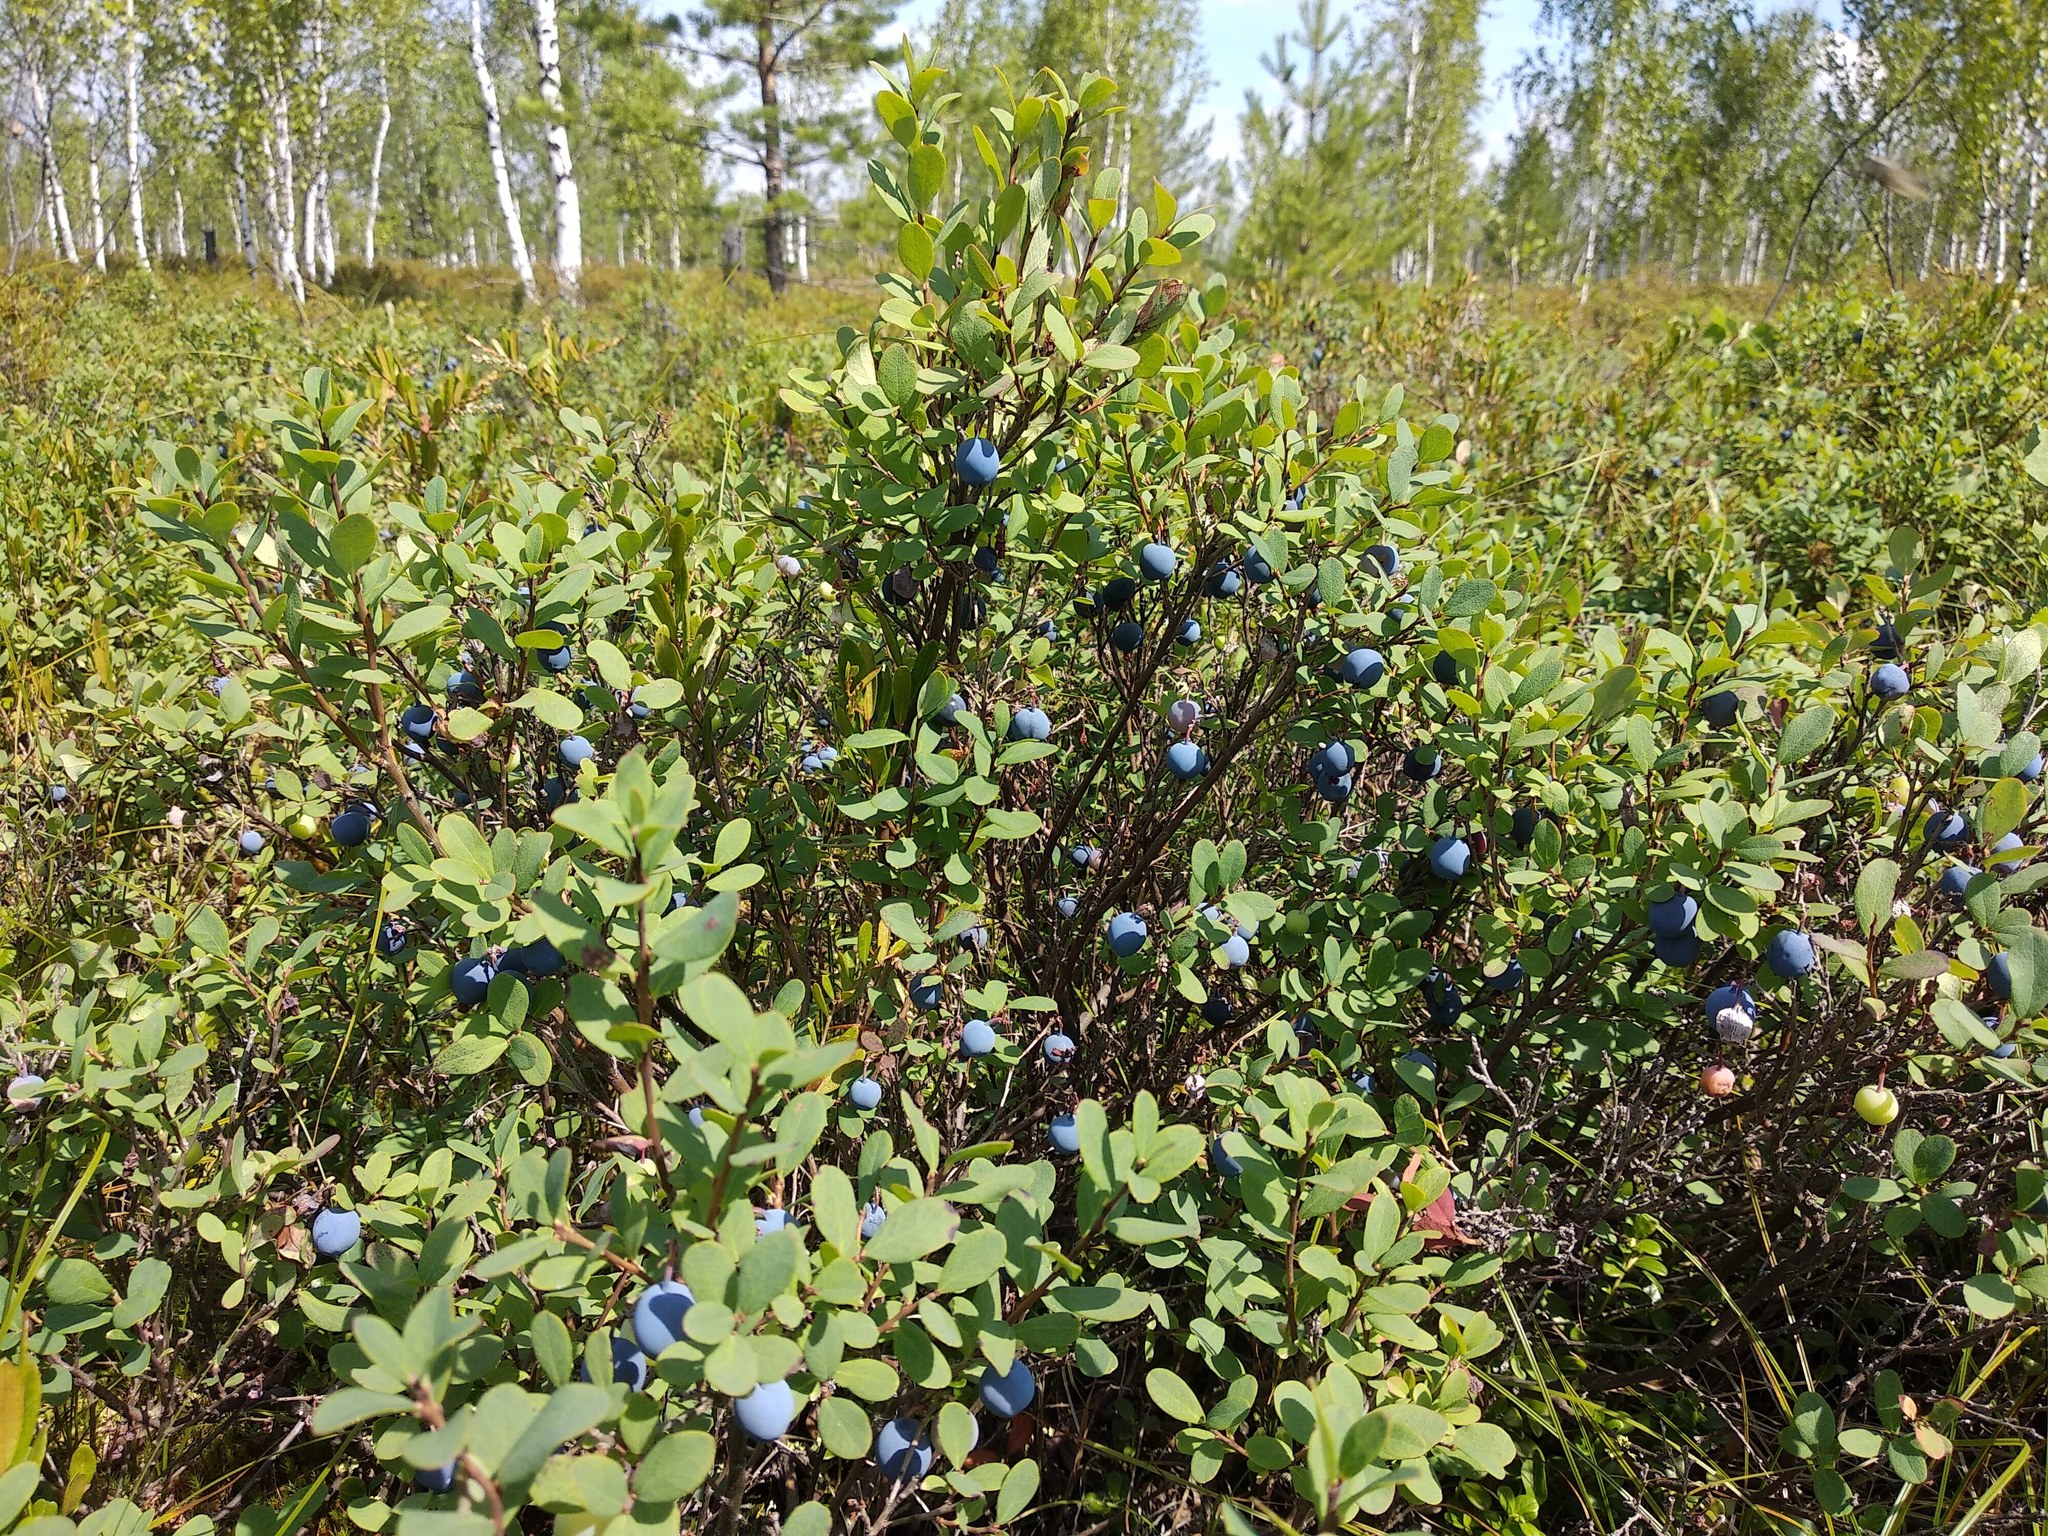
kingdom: Plantae
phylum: Tracheophyta
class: Magnoliopsida
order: Ericales
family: Ericaceae
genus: Vaccinium
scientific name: Vaccinium uliginosum
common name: Bog bilberry
